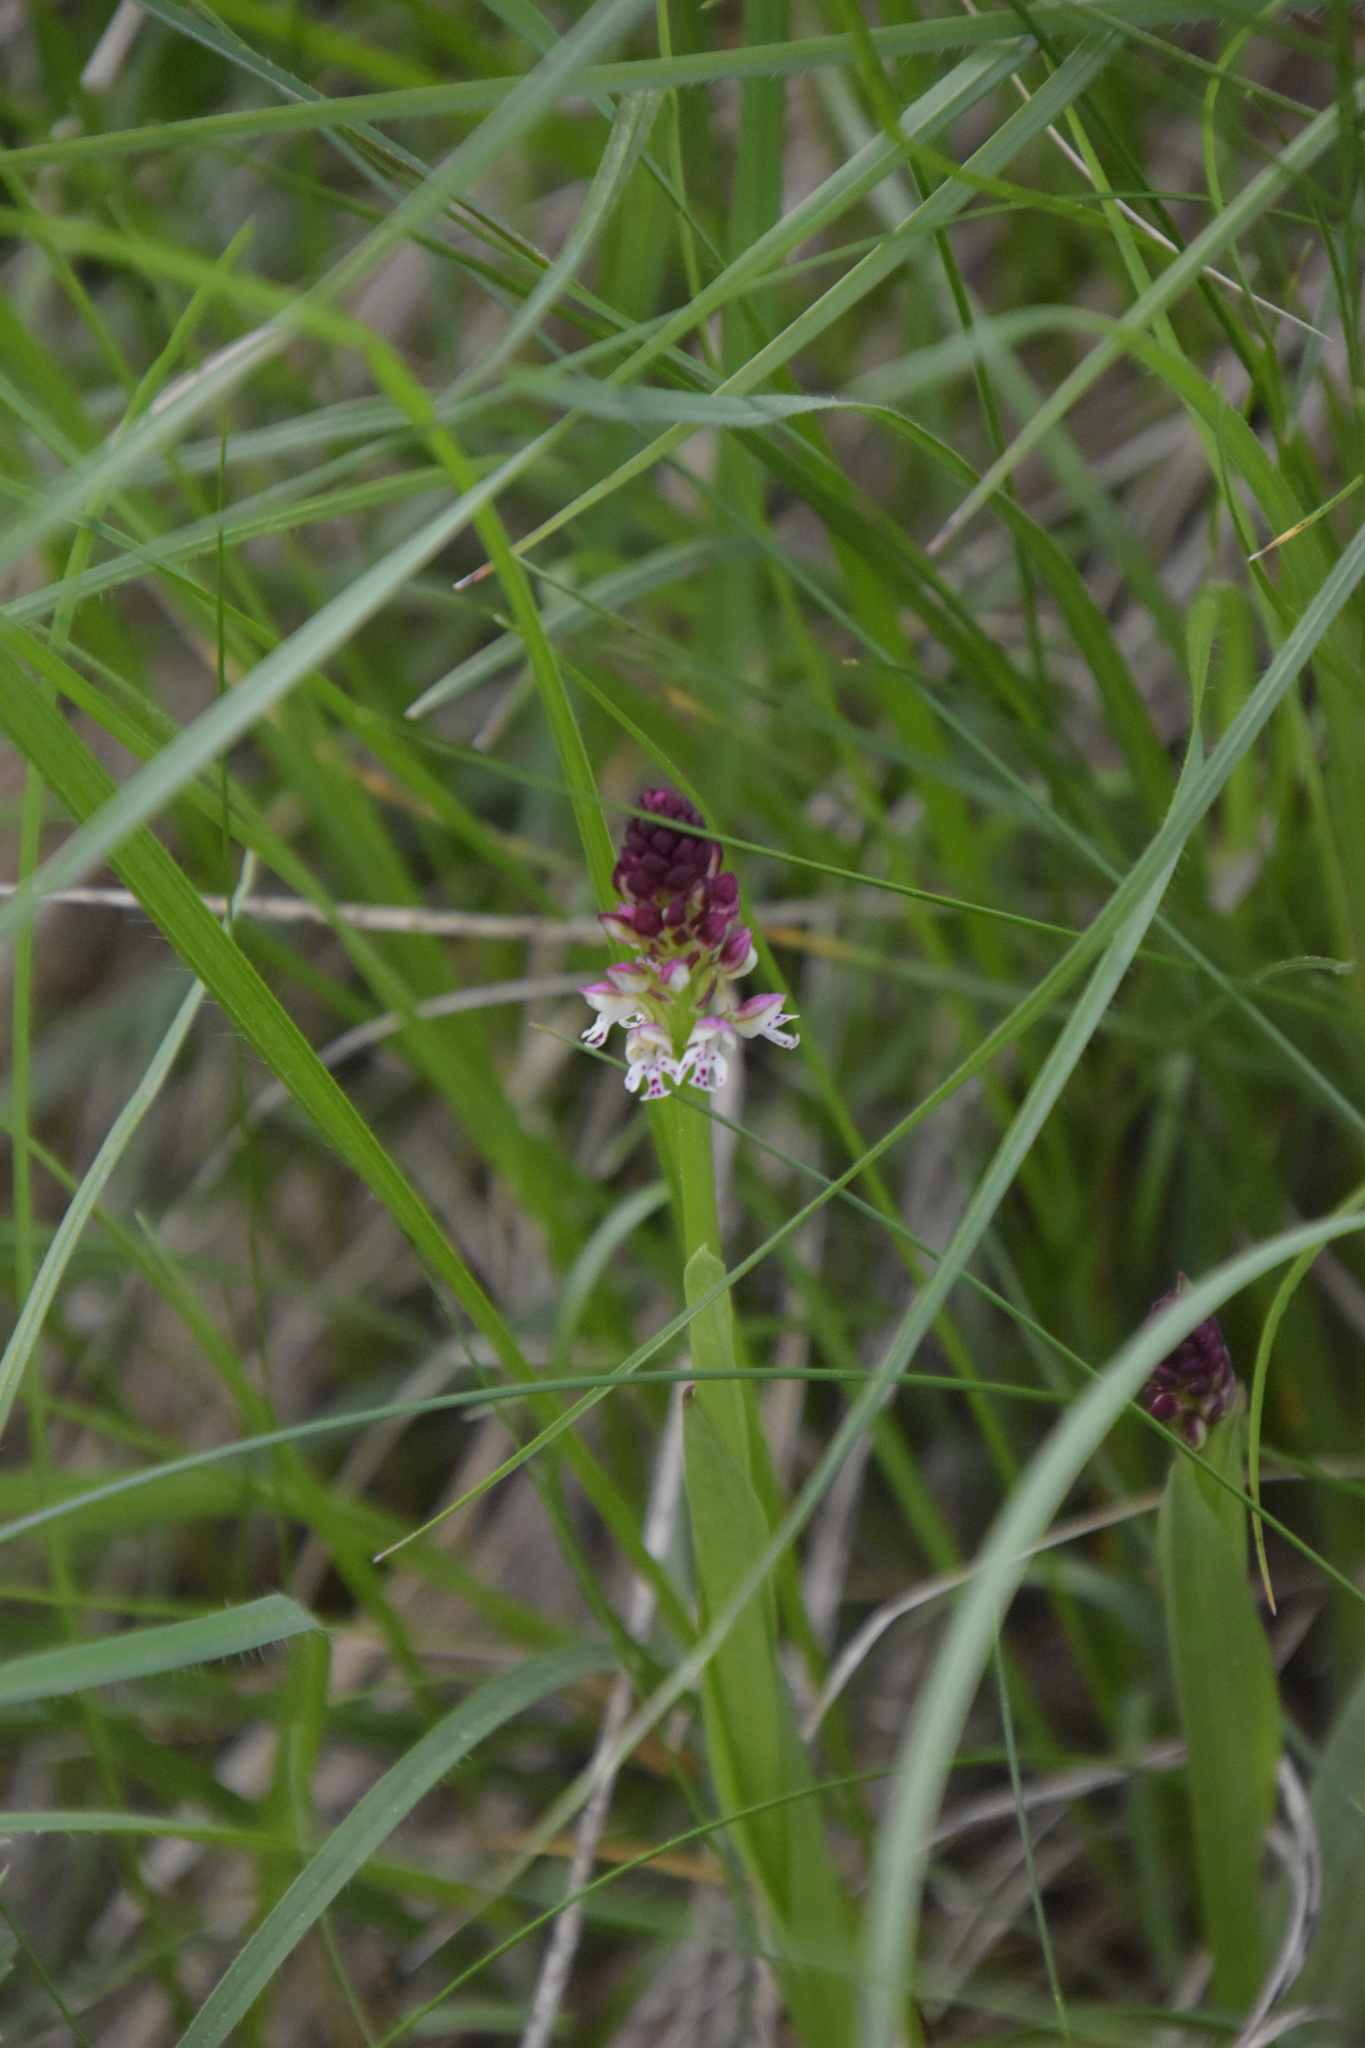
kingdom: Plantae
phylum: Tracheophyta
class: Liliopsida
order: Asparagales
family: Orchidaceae
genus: Neotinea
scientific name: Neotinea ustulata
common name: Burnt orchid
